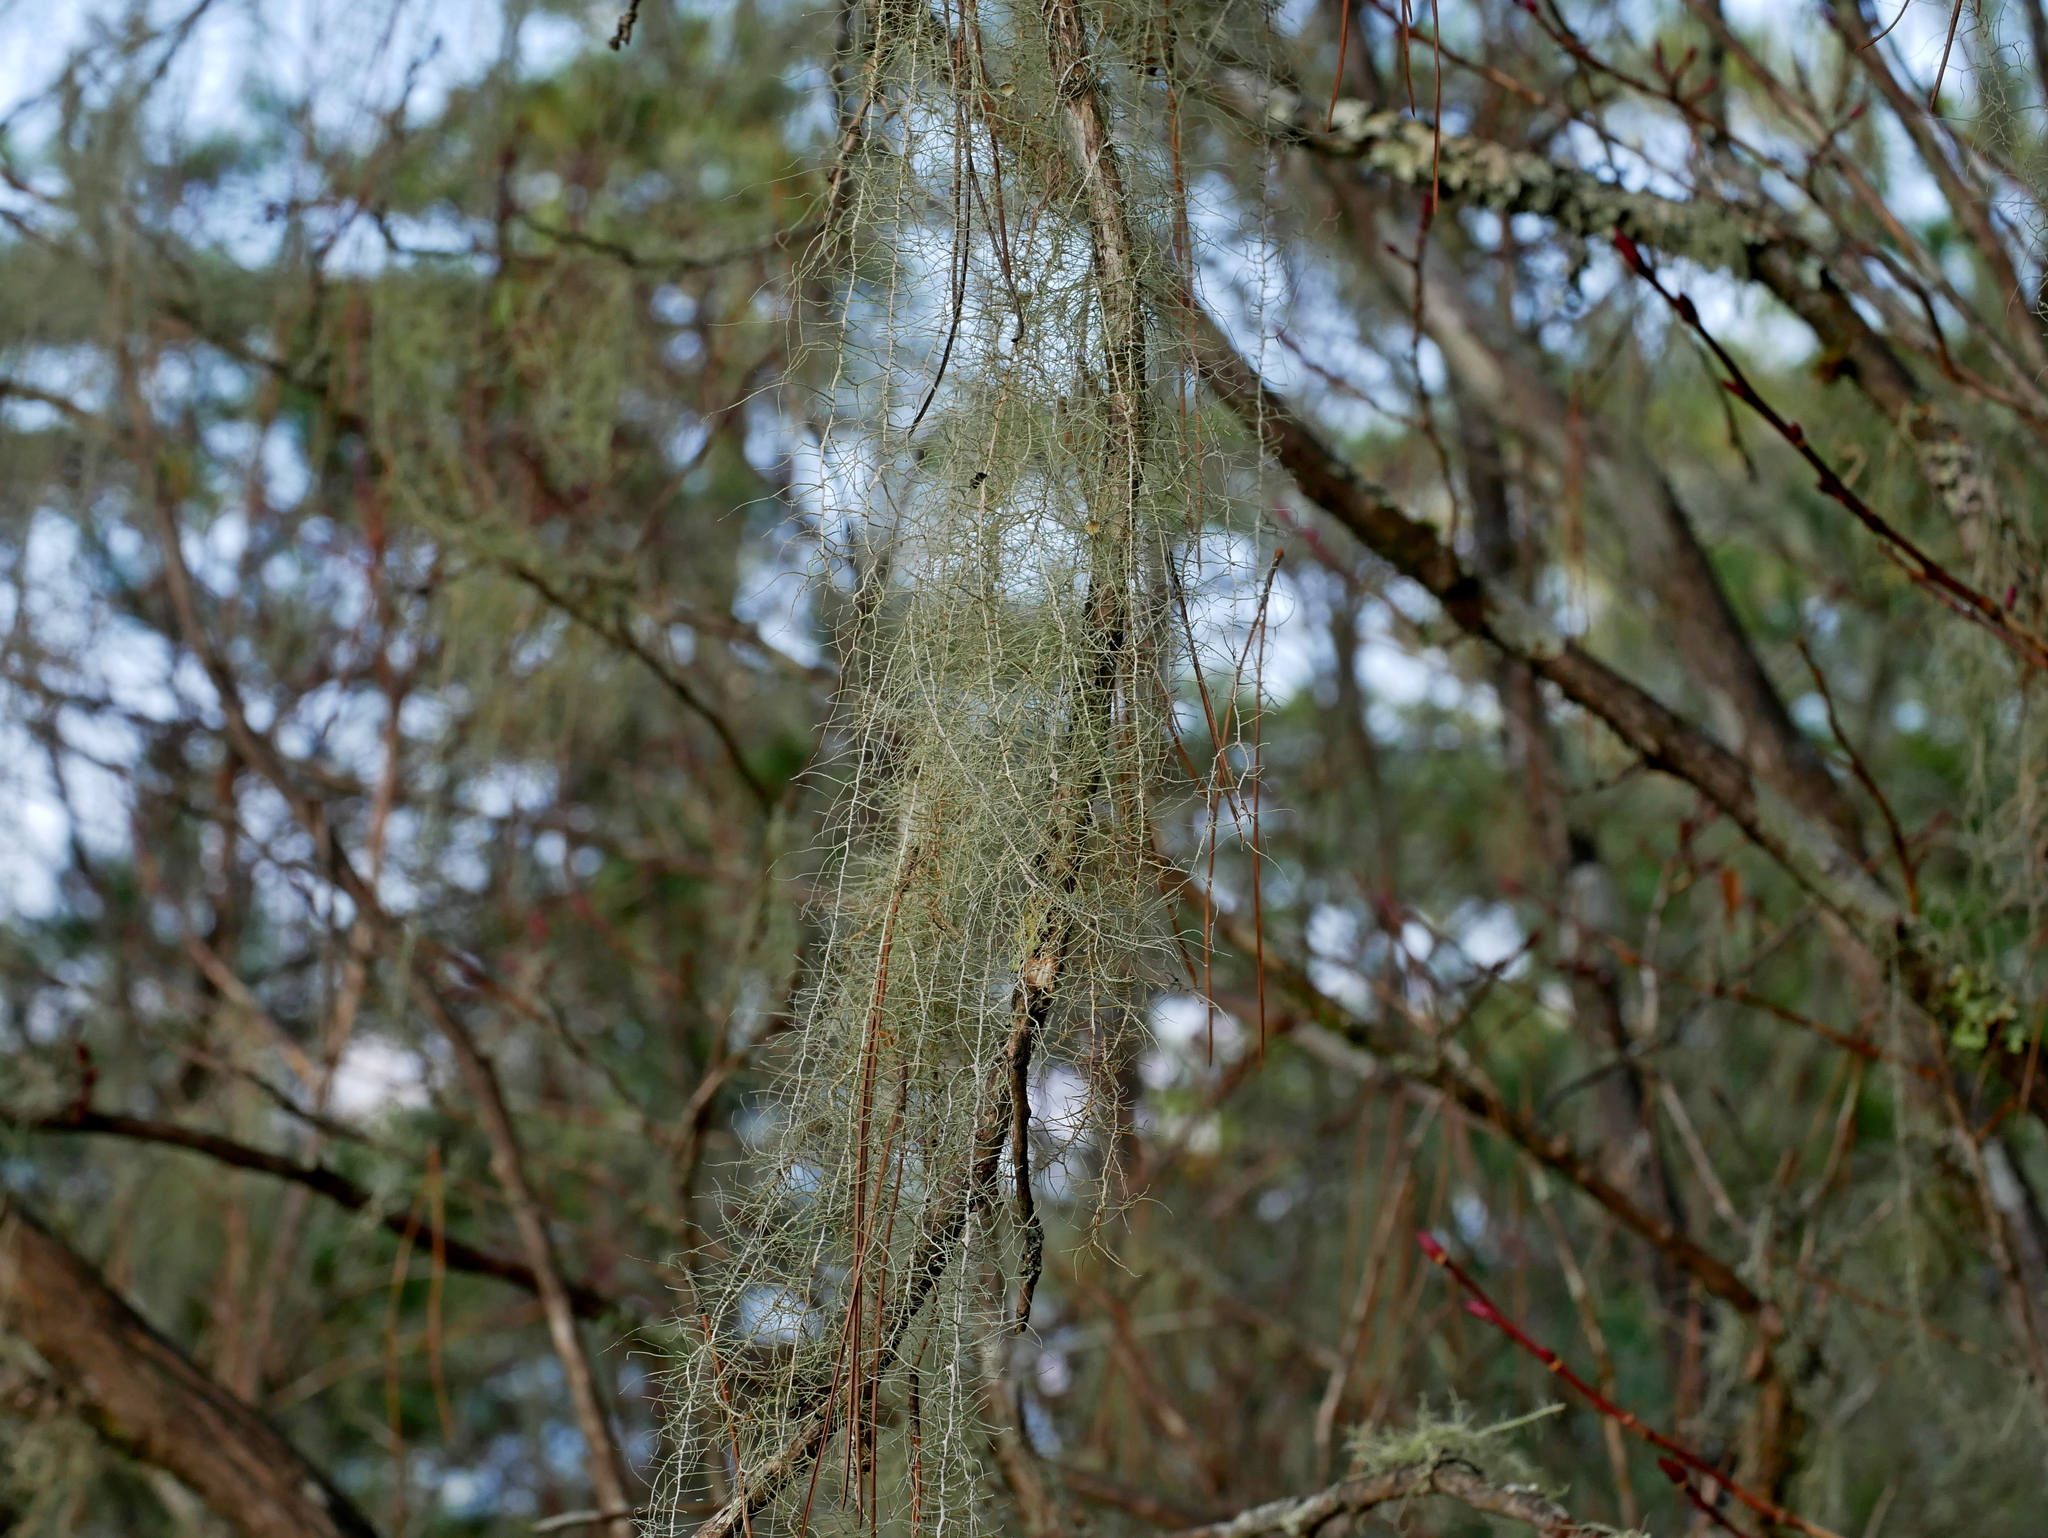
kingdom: Fungi
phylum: Ascomycota
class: Lecanoromycetes
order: Lecanorales
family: Parmeliaceae
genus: Dolichousnea
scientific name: Dolichousnea longissima
